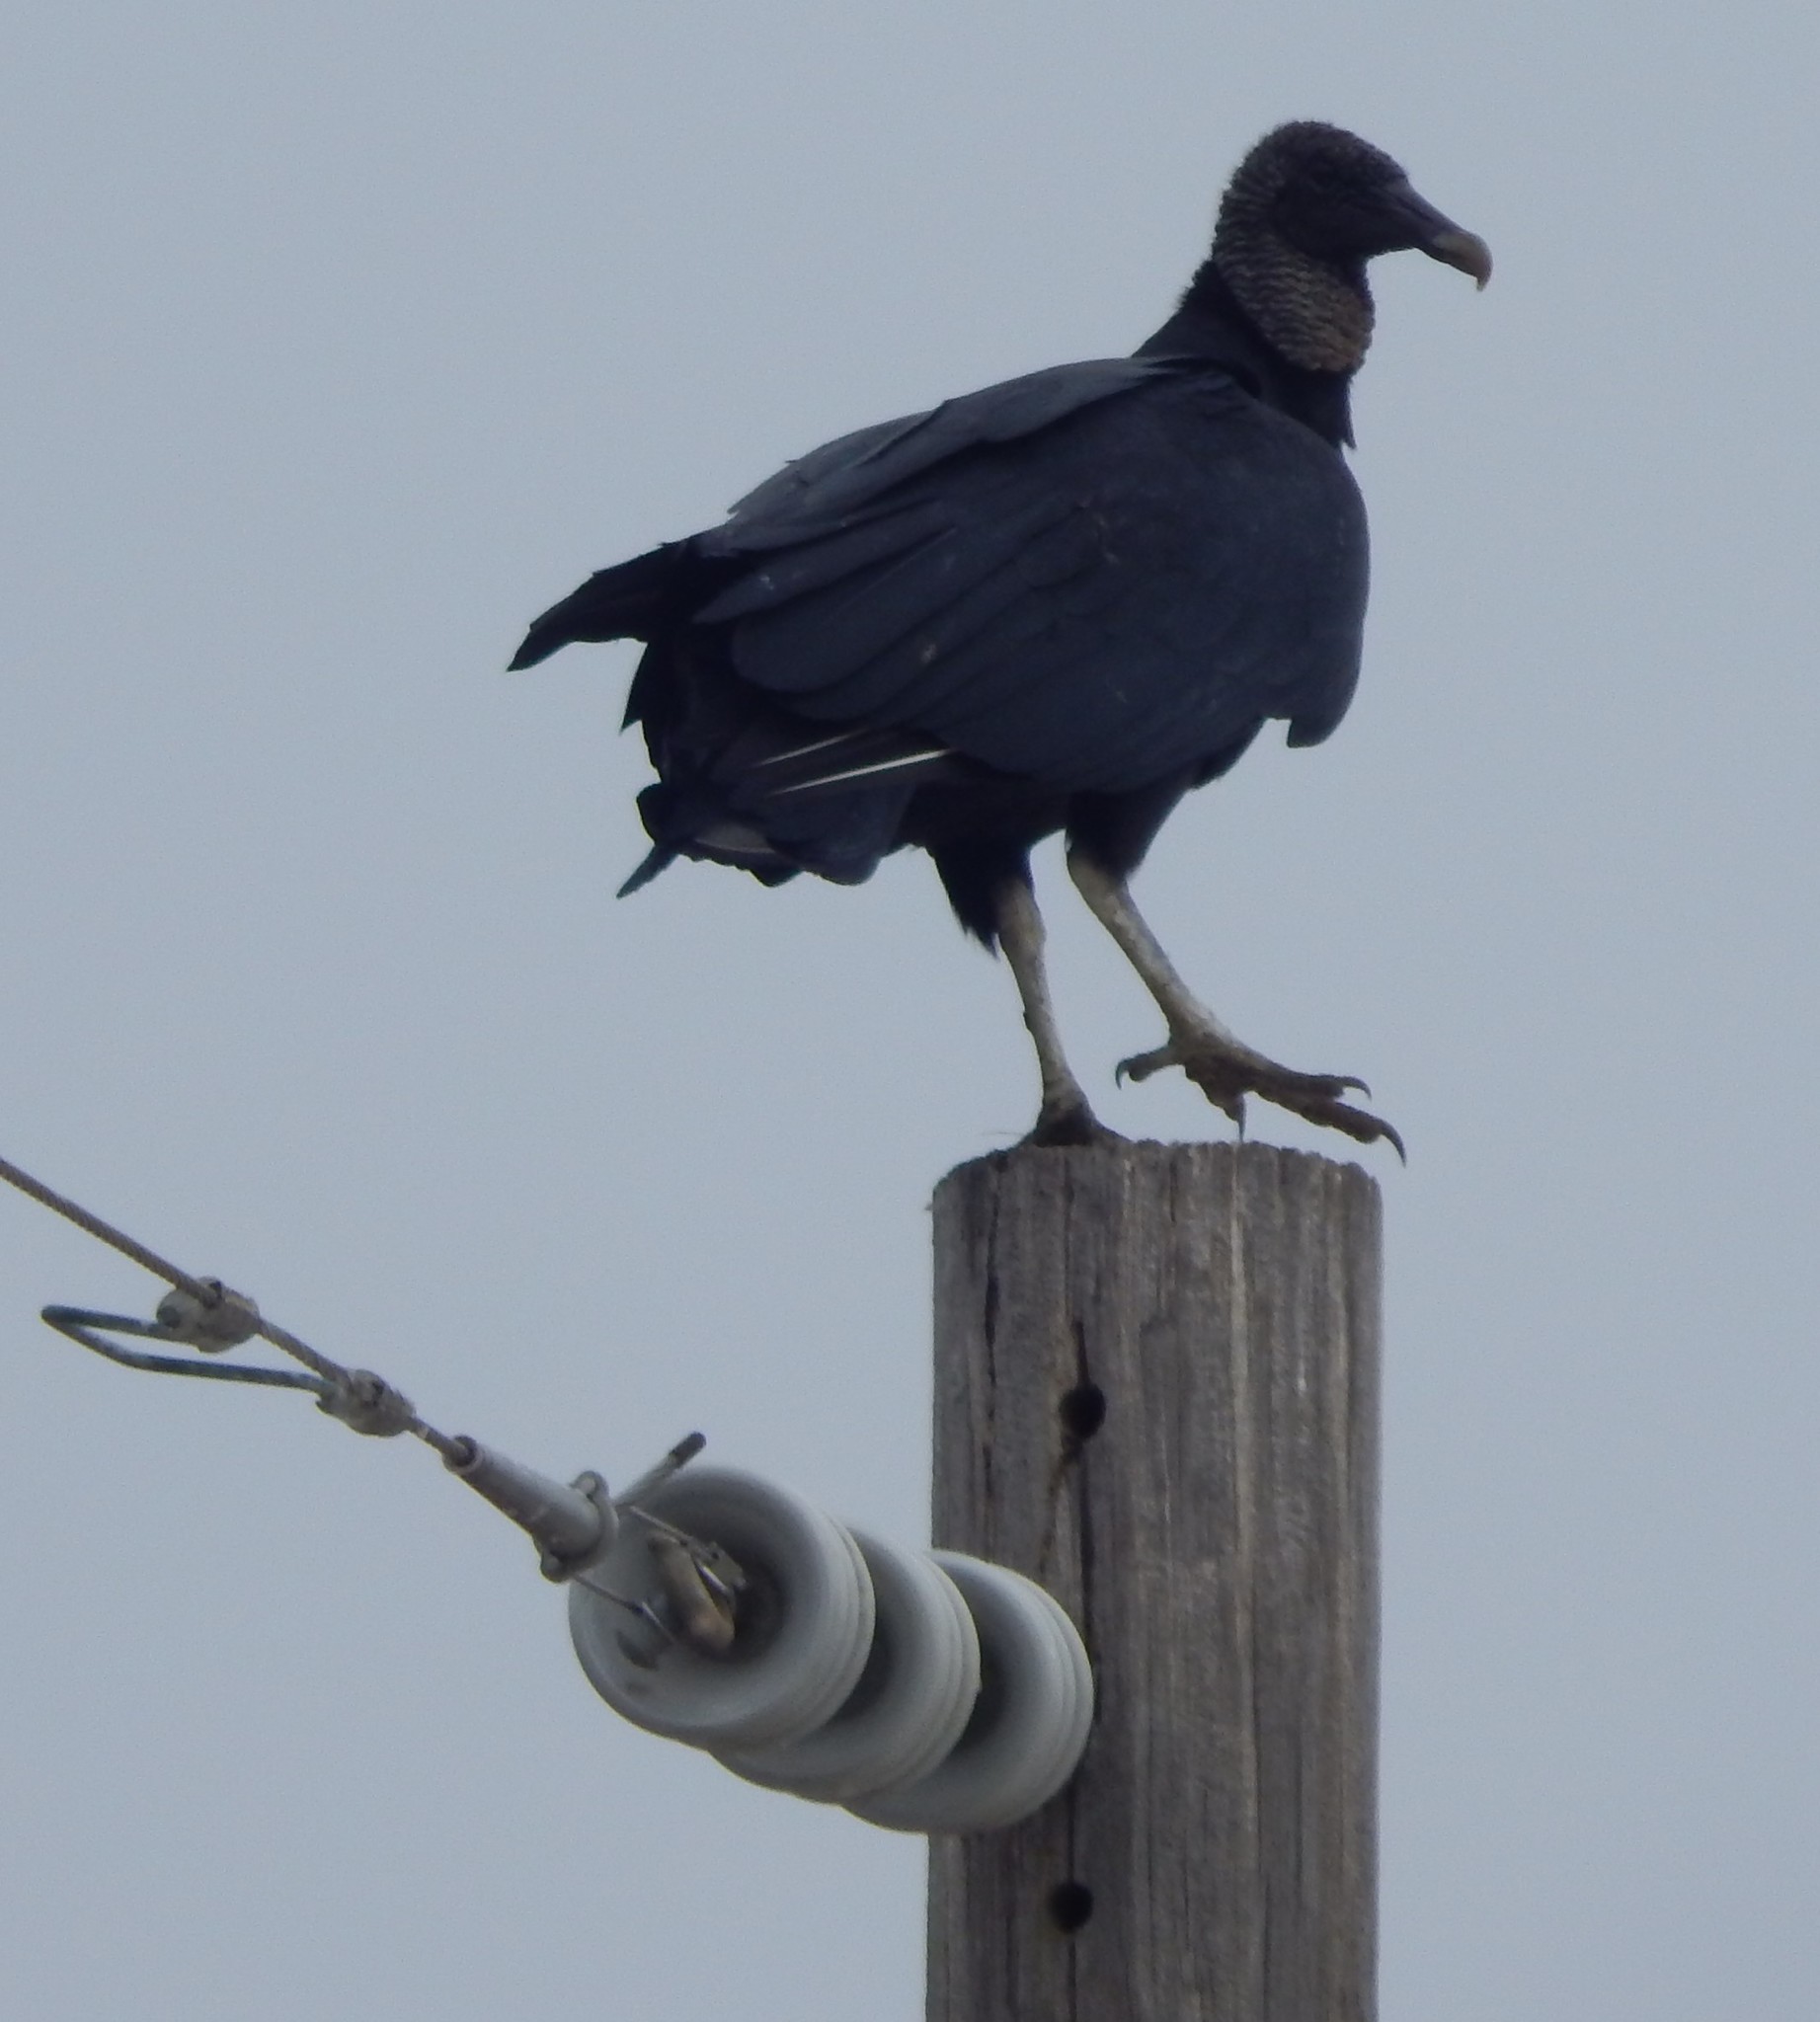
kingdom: Animalia
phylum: Chordata
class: Aves
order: Accipitriformes
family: Cathartidae
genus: Coragyps
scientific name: Coragyps atratus
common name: Black vulture
